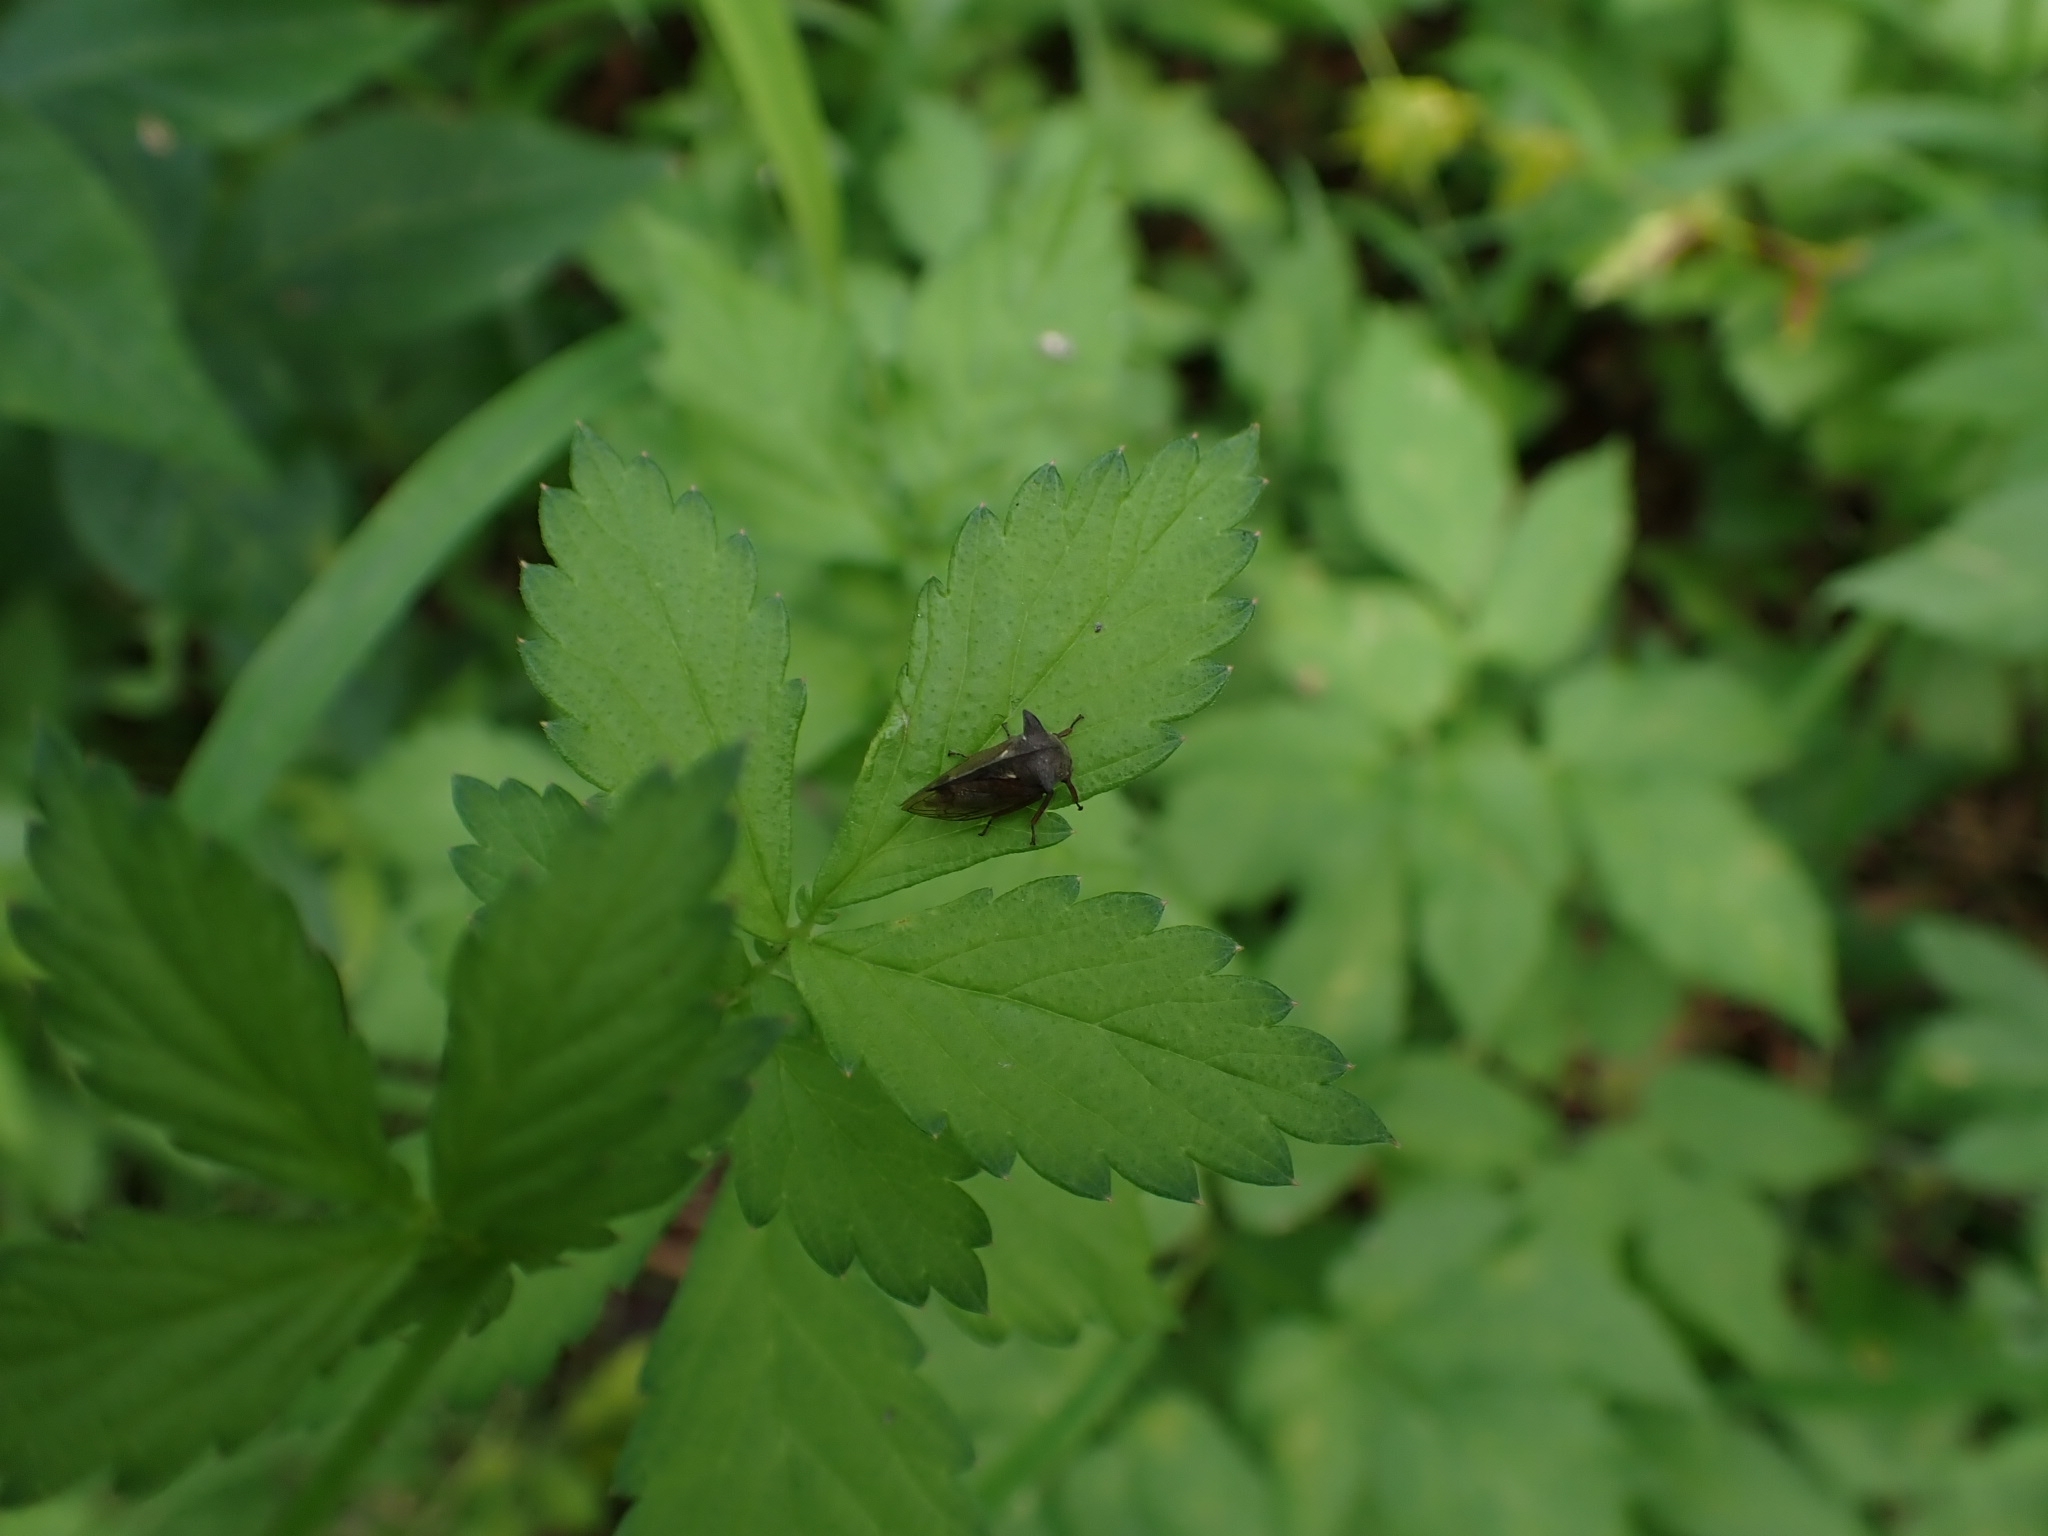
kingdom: Animalia
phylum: Arthropoda
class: Insecta
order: Hemiptera
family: Membracidae
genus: Centrotus
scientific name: Centrotus cornuta
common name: Treehopper
